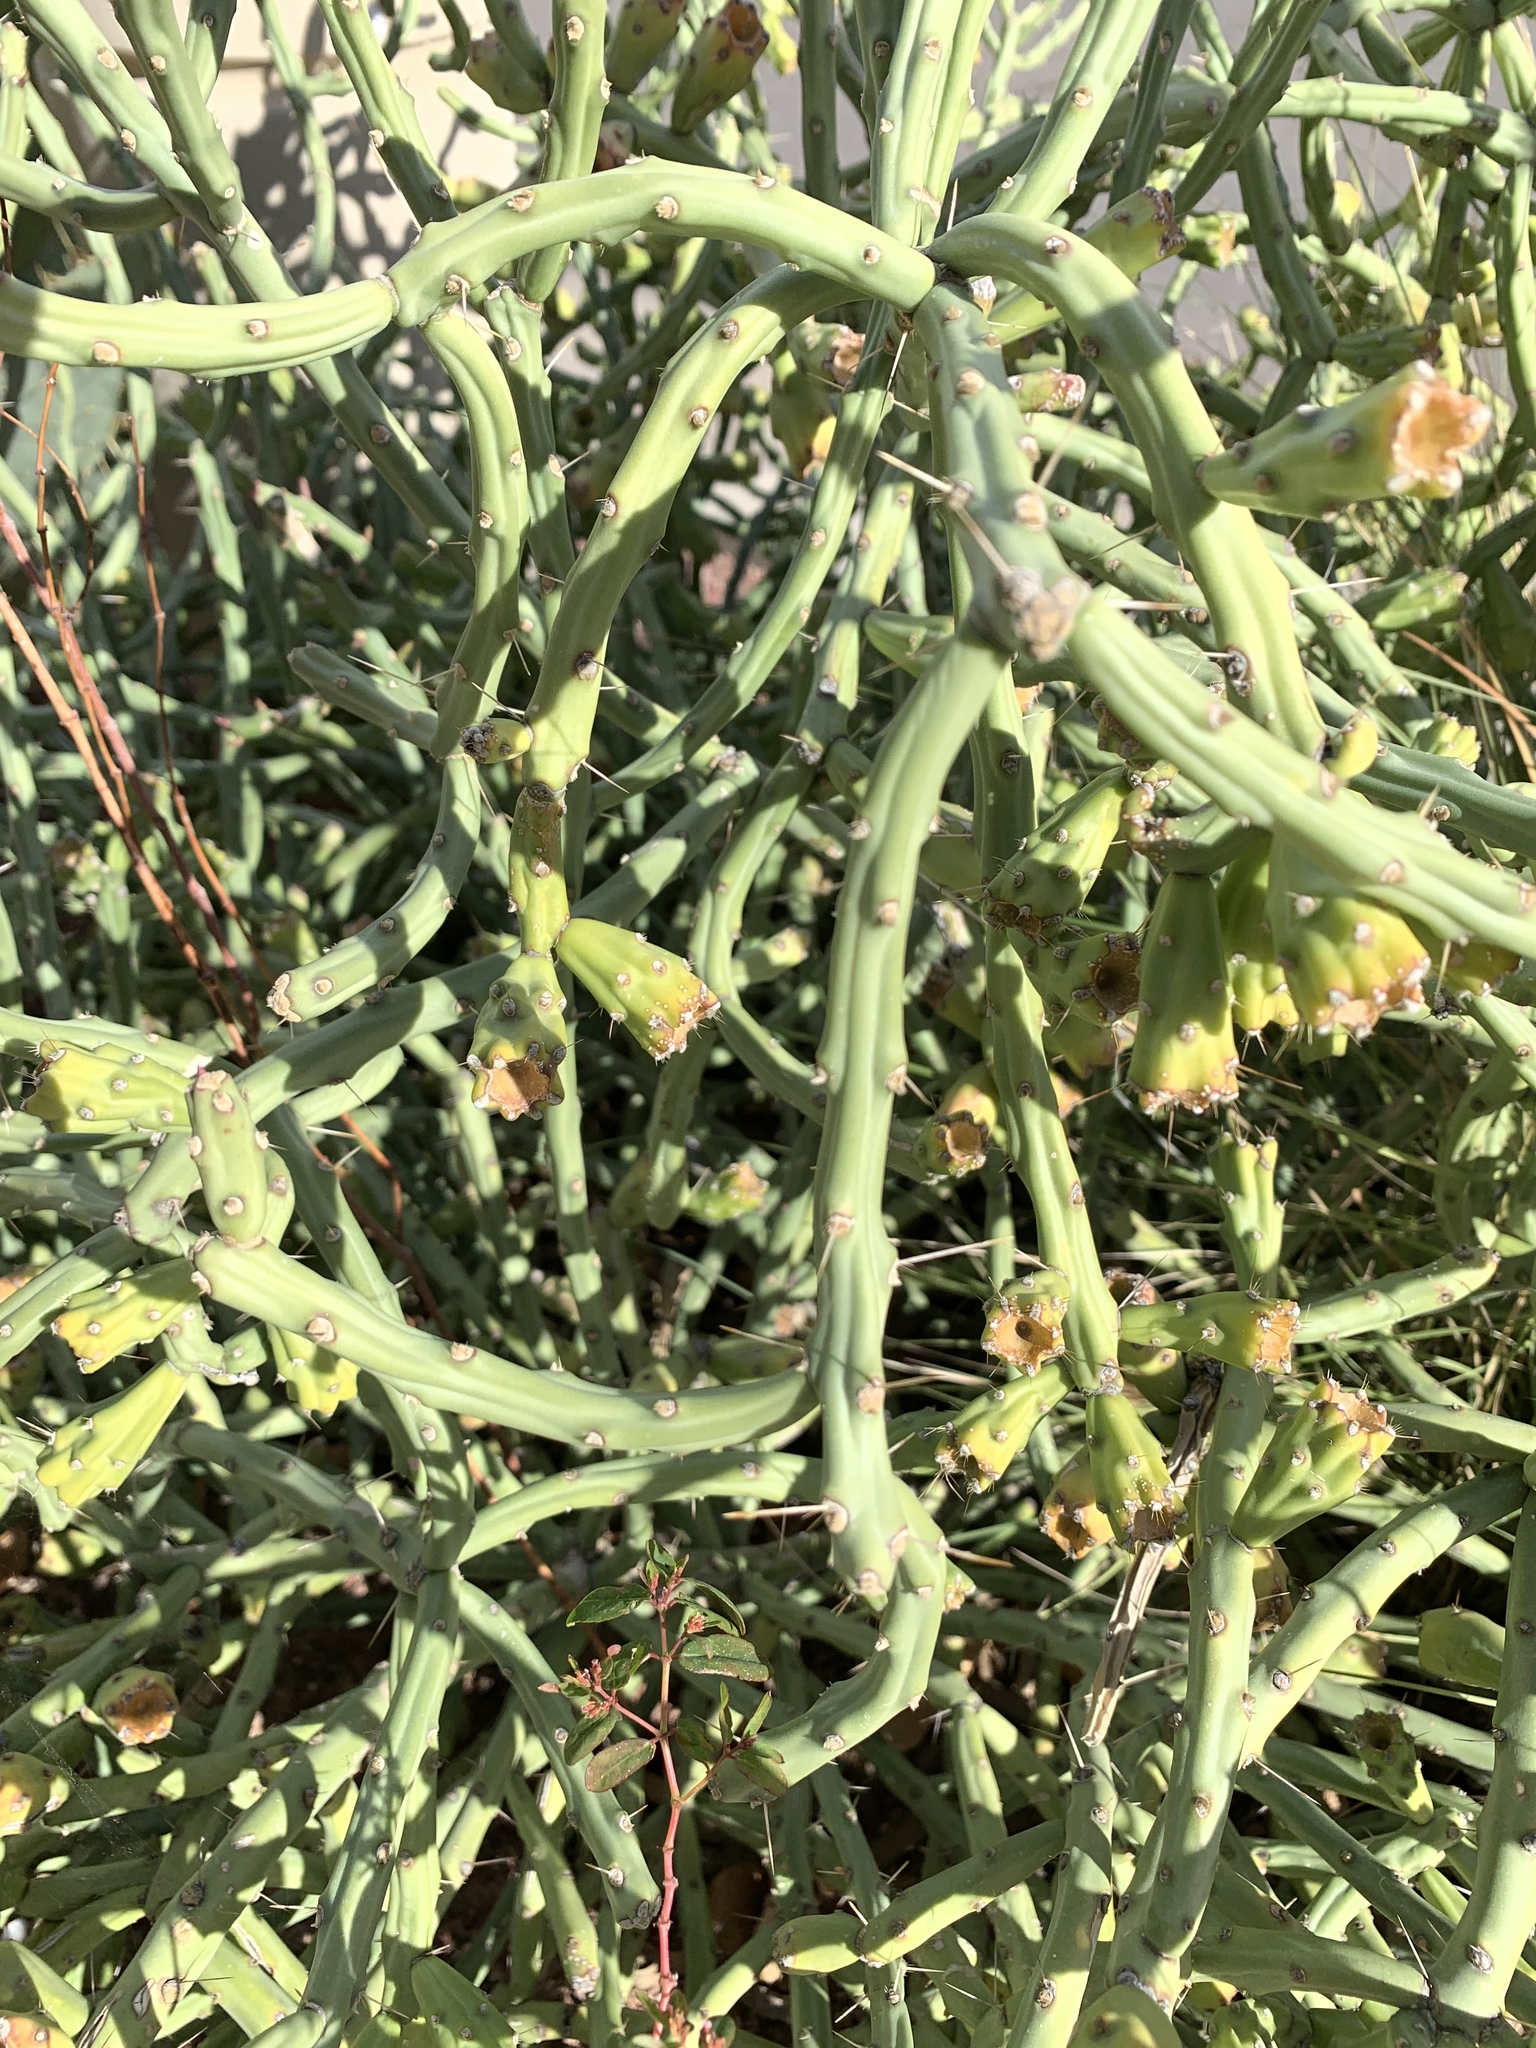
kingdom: Plantae
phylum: Tracheophyta
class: Magnoliopsida
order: Caryophyllales
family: Cactaceae
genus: Cylindropuntia
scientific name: Cylindropuntia arbuscula
